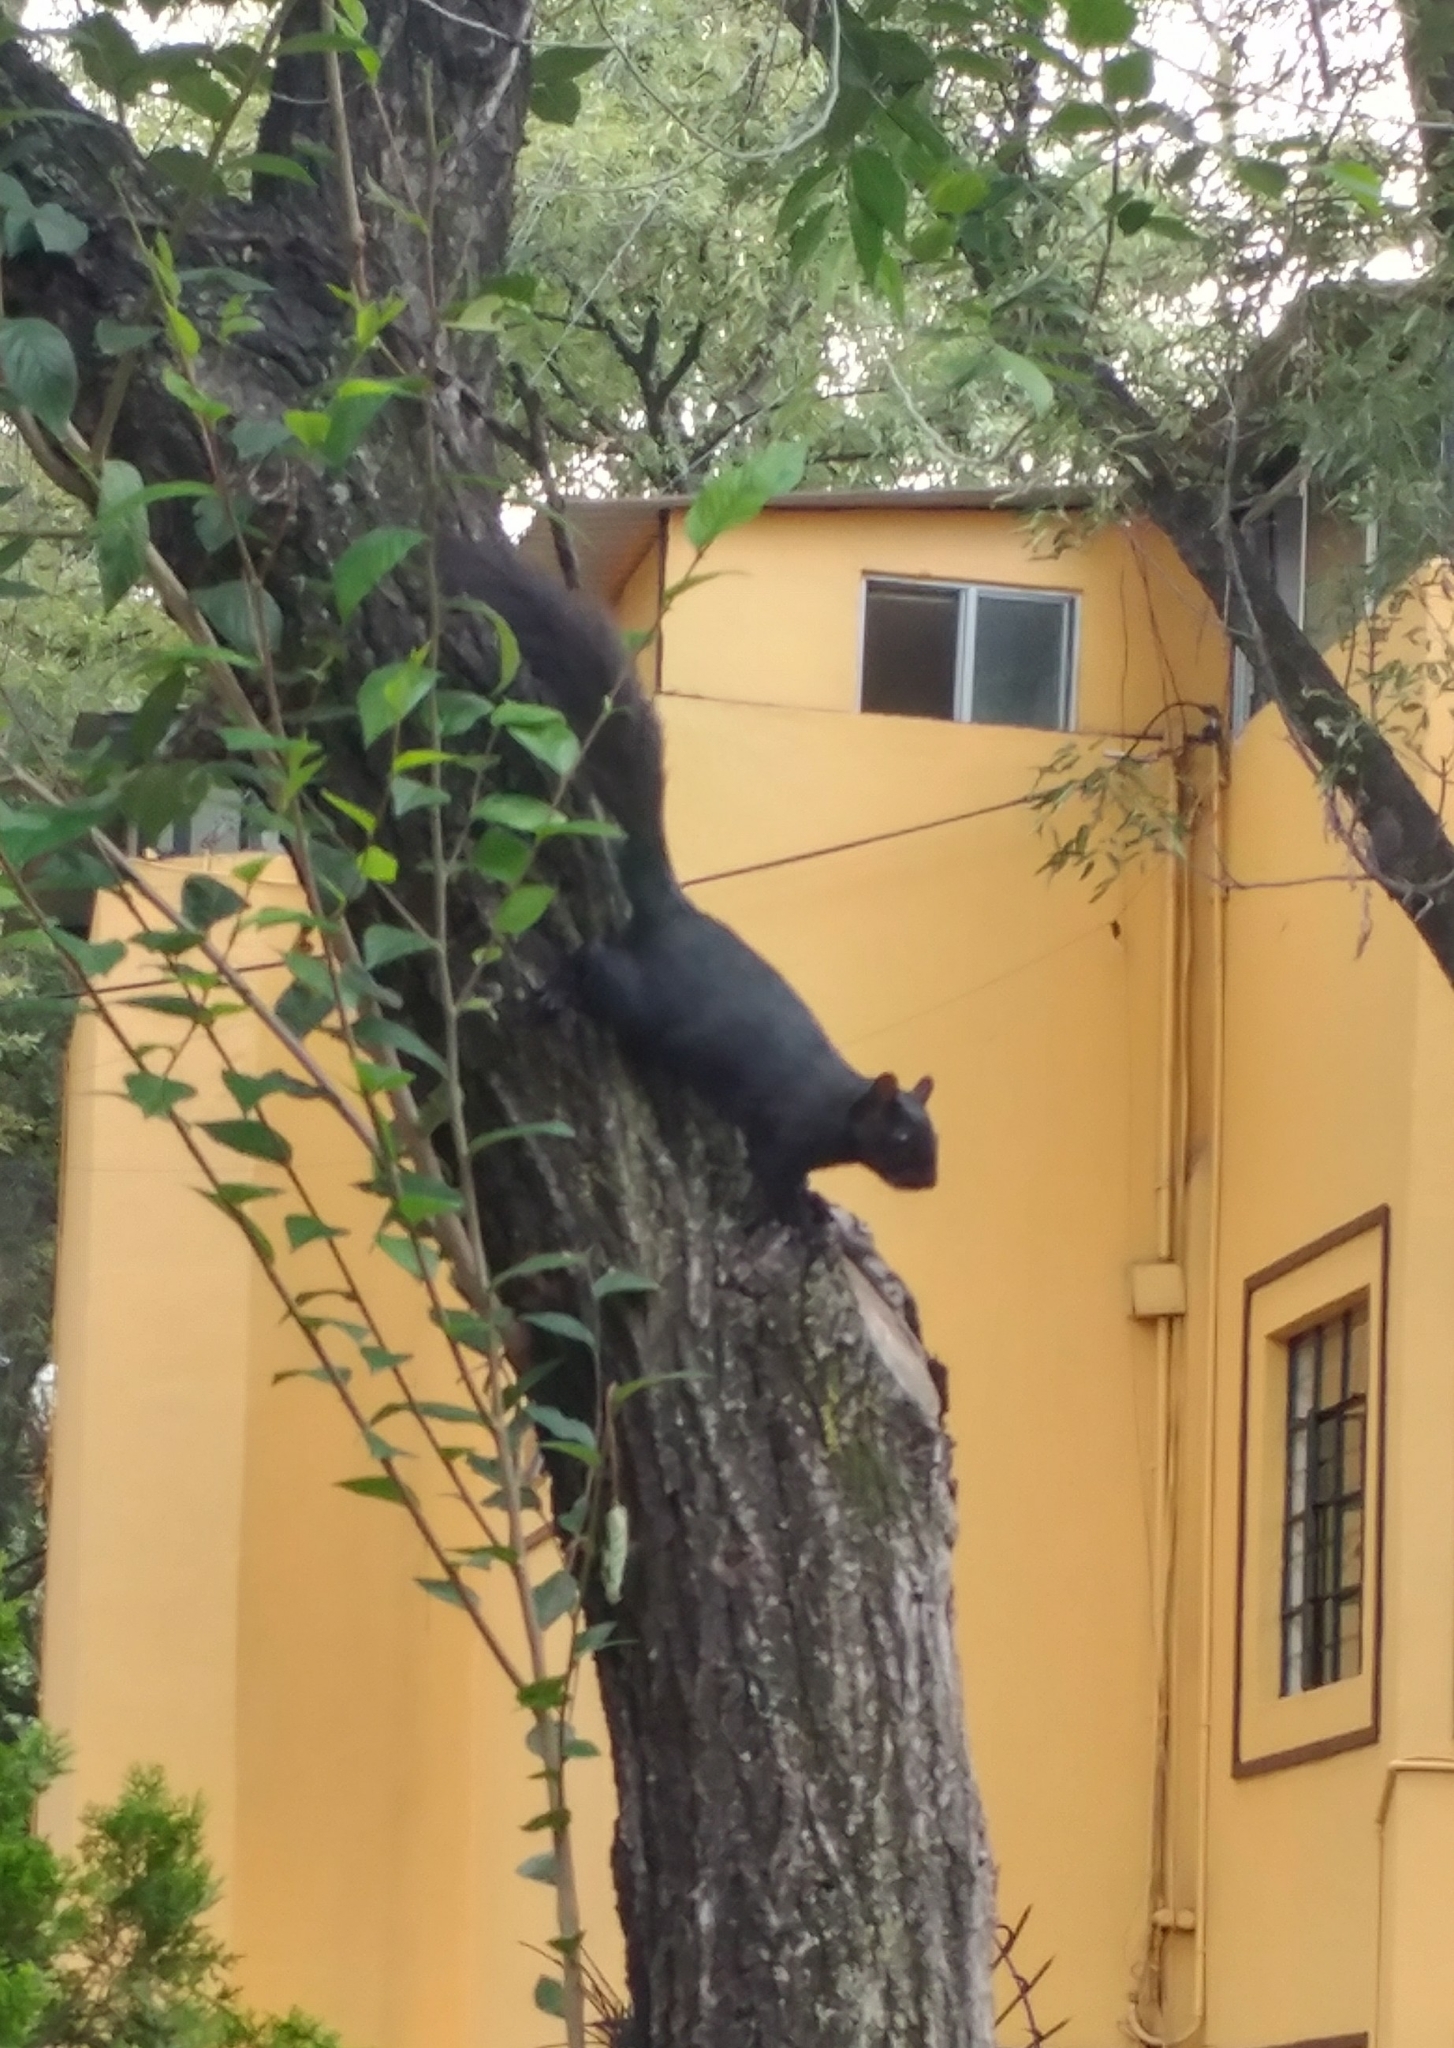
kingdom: Animalia
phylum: Chordata
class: Mammalia
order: Rodentia
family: Sciuridae
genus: Sciurus
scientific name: Sciurus aureogaster
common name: Red-bellied squirrel
